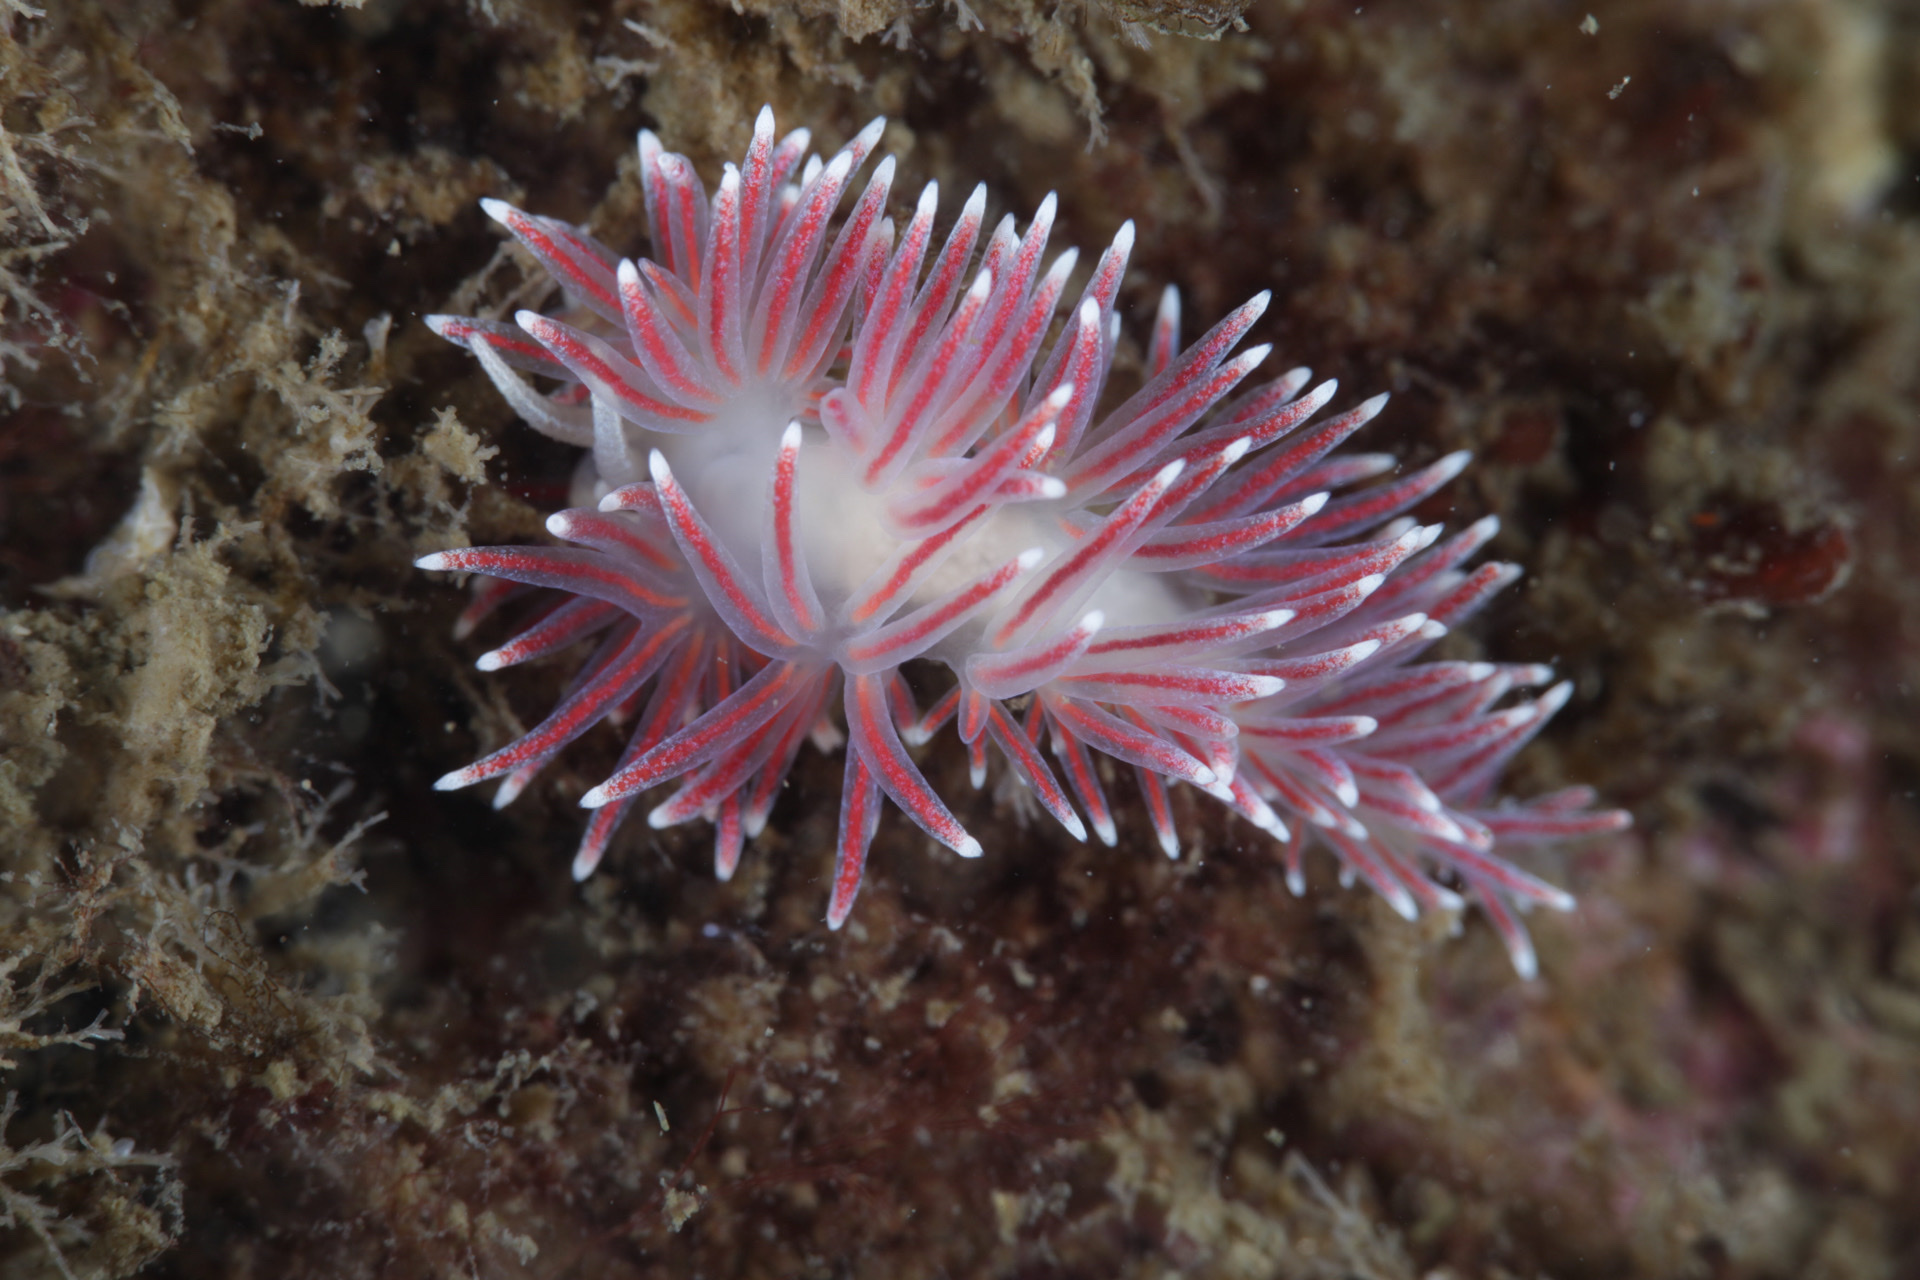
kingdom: Animalia
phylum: Mollusca
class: Gastropoda
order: Nudibranchia
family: Flabellinidae
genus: Carronella
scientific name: Carronella pellucida
